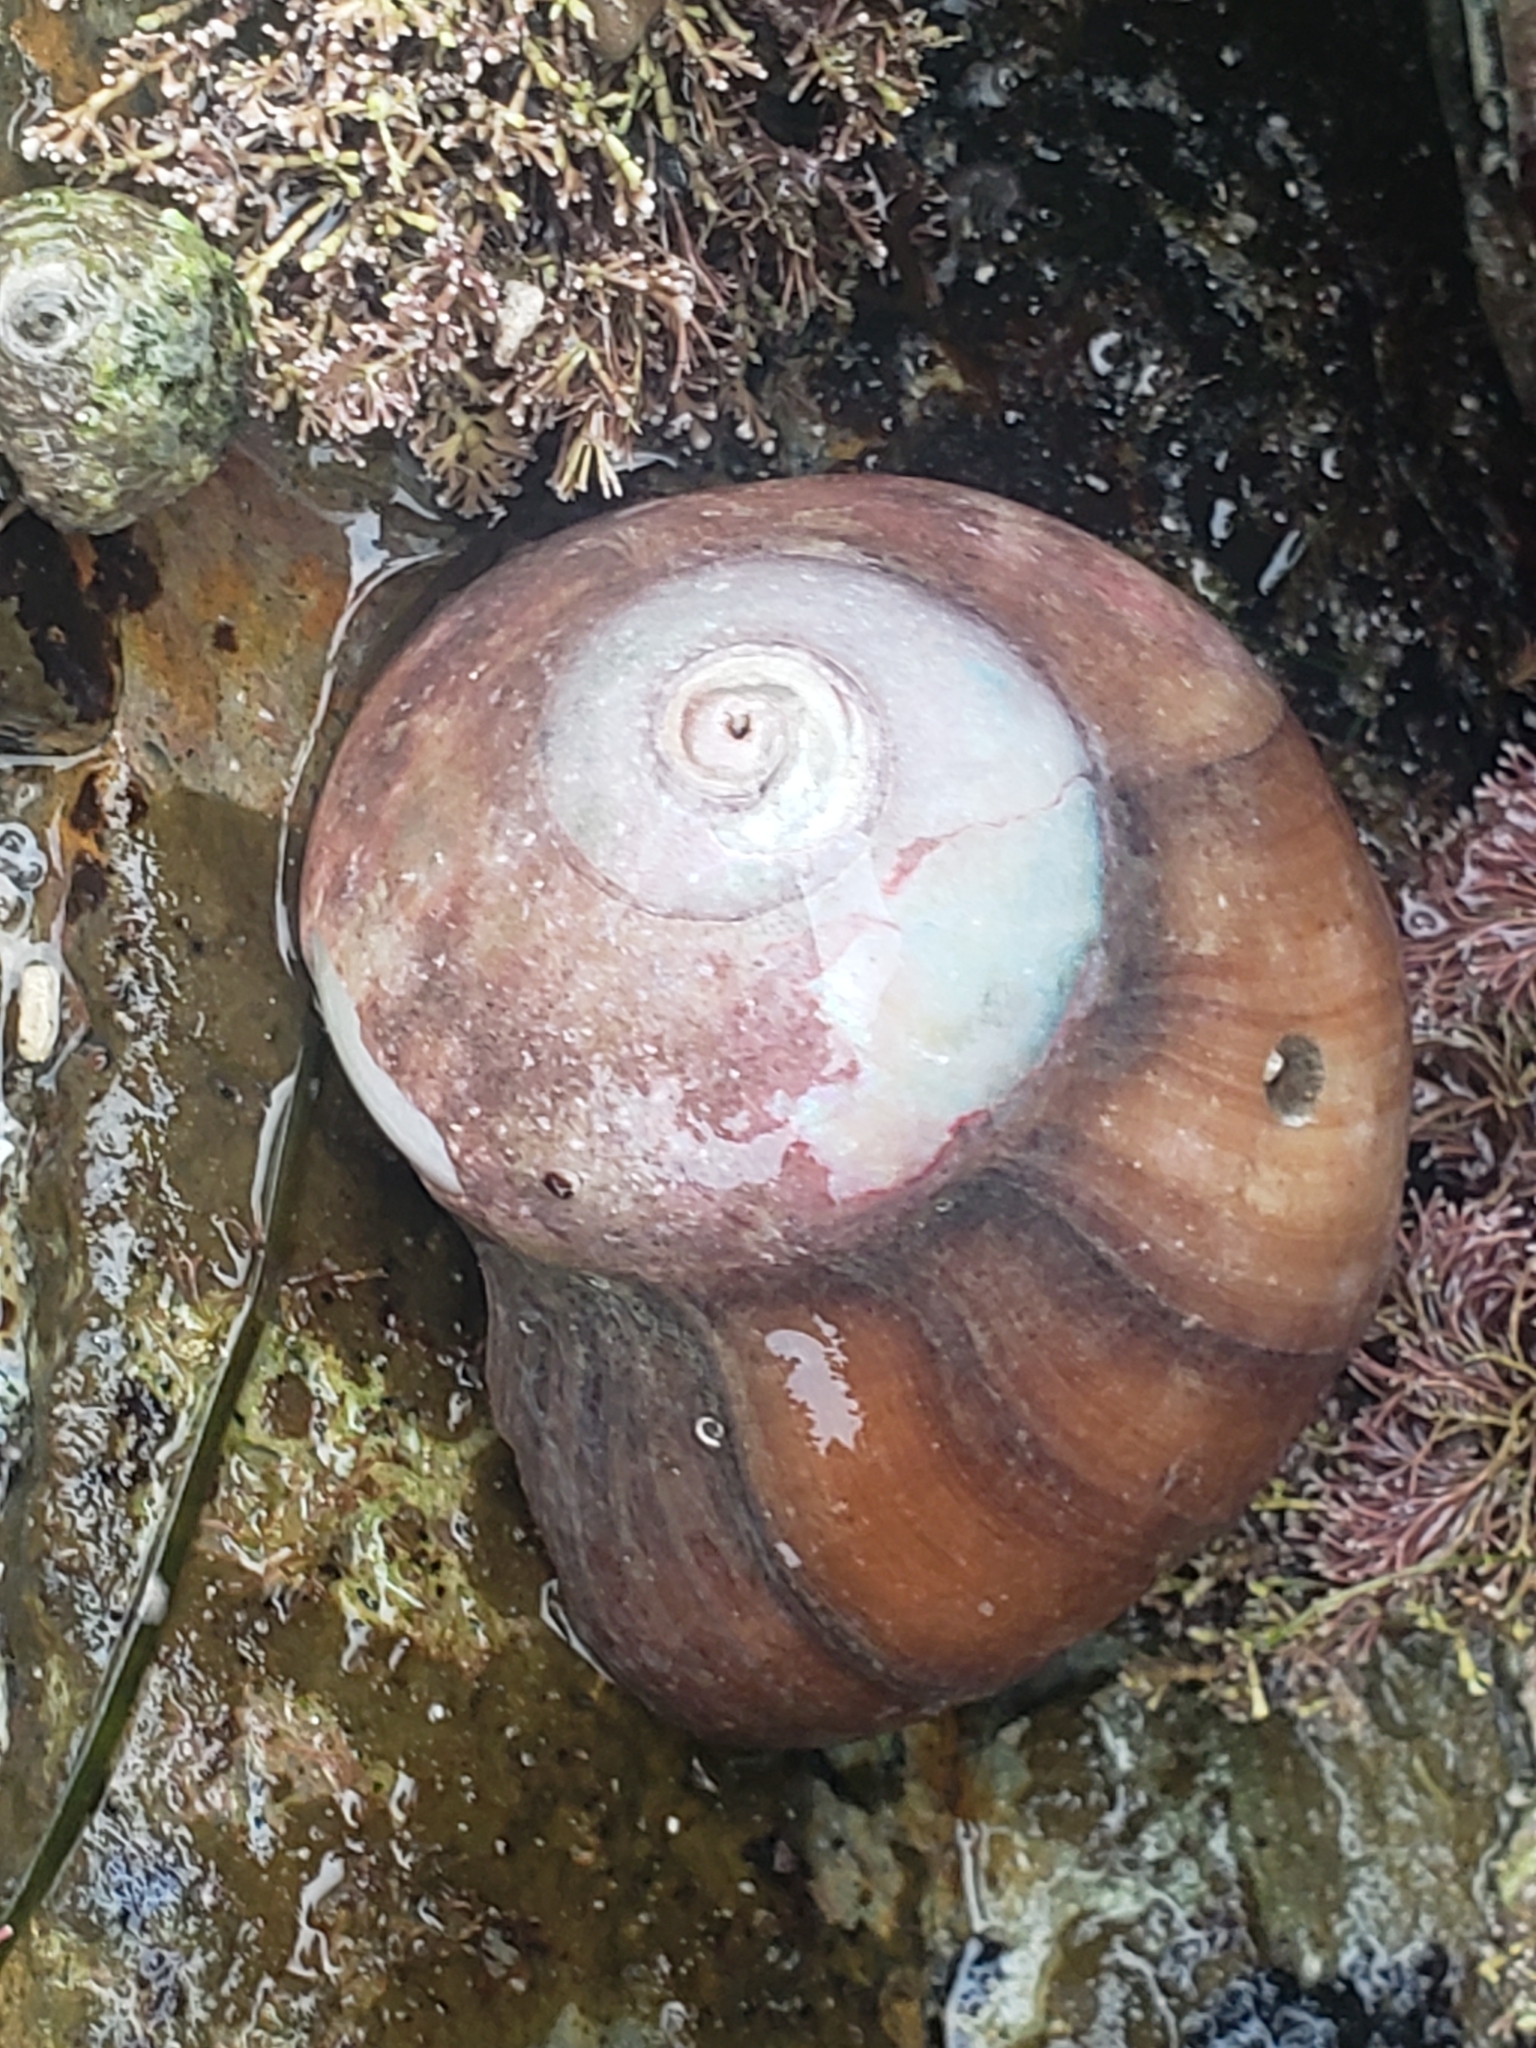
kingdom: Animalia
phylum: Mollusca
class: Gastropoda
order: Trochida
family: Tegulidae
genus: Norrisia
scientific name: Norrisia norrisii
